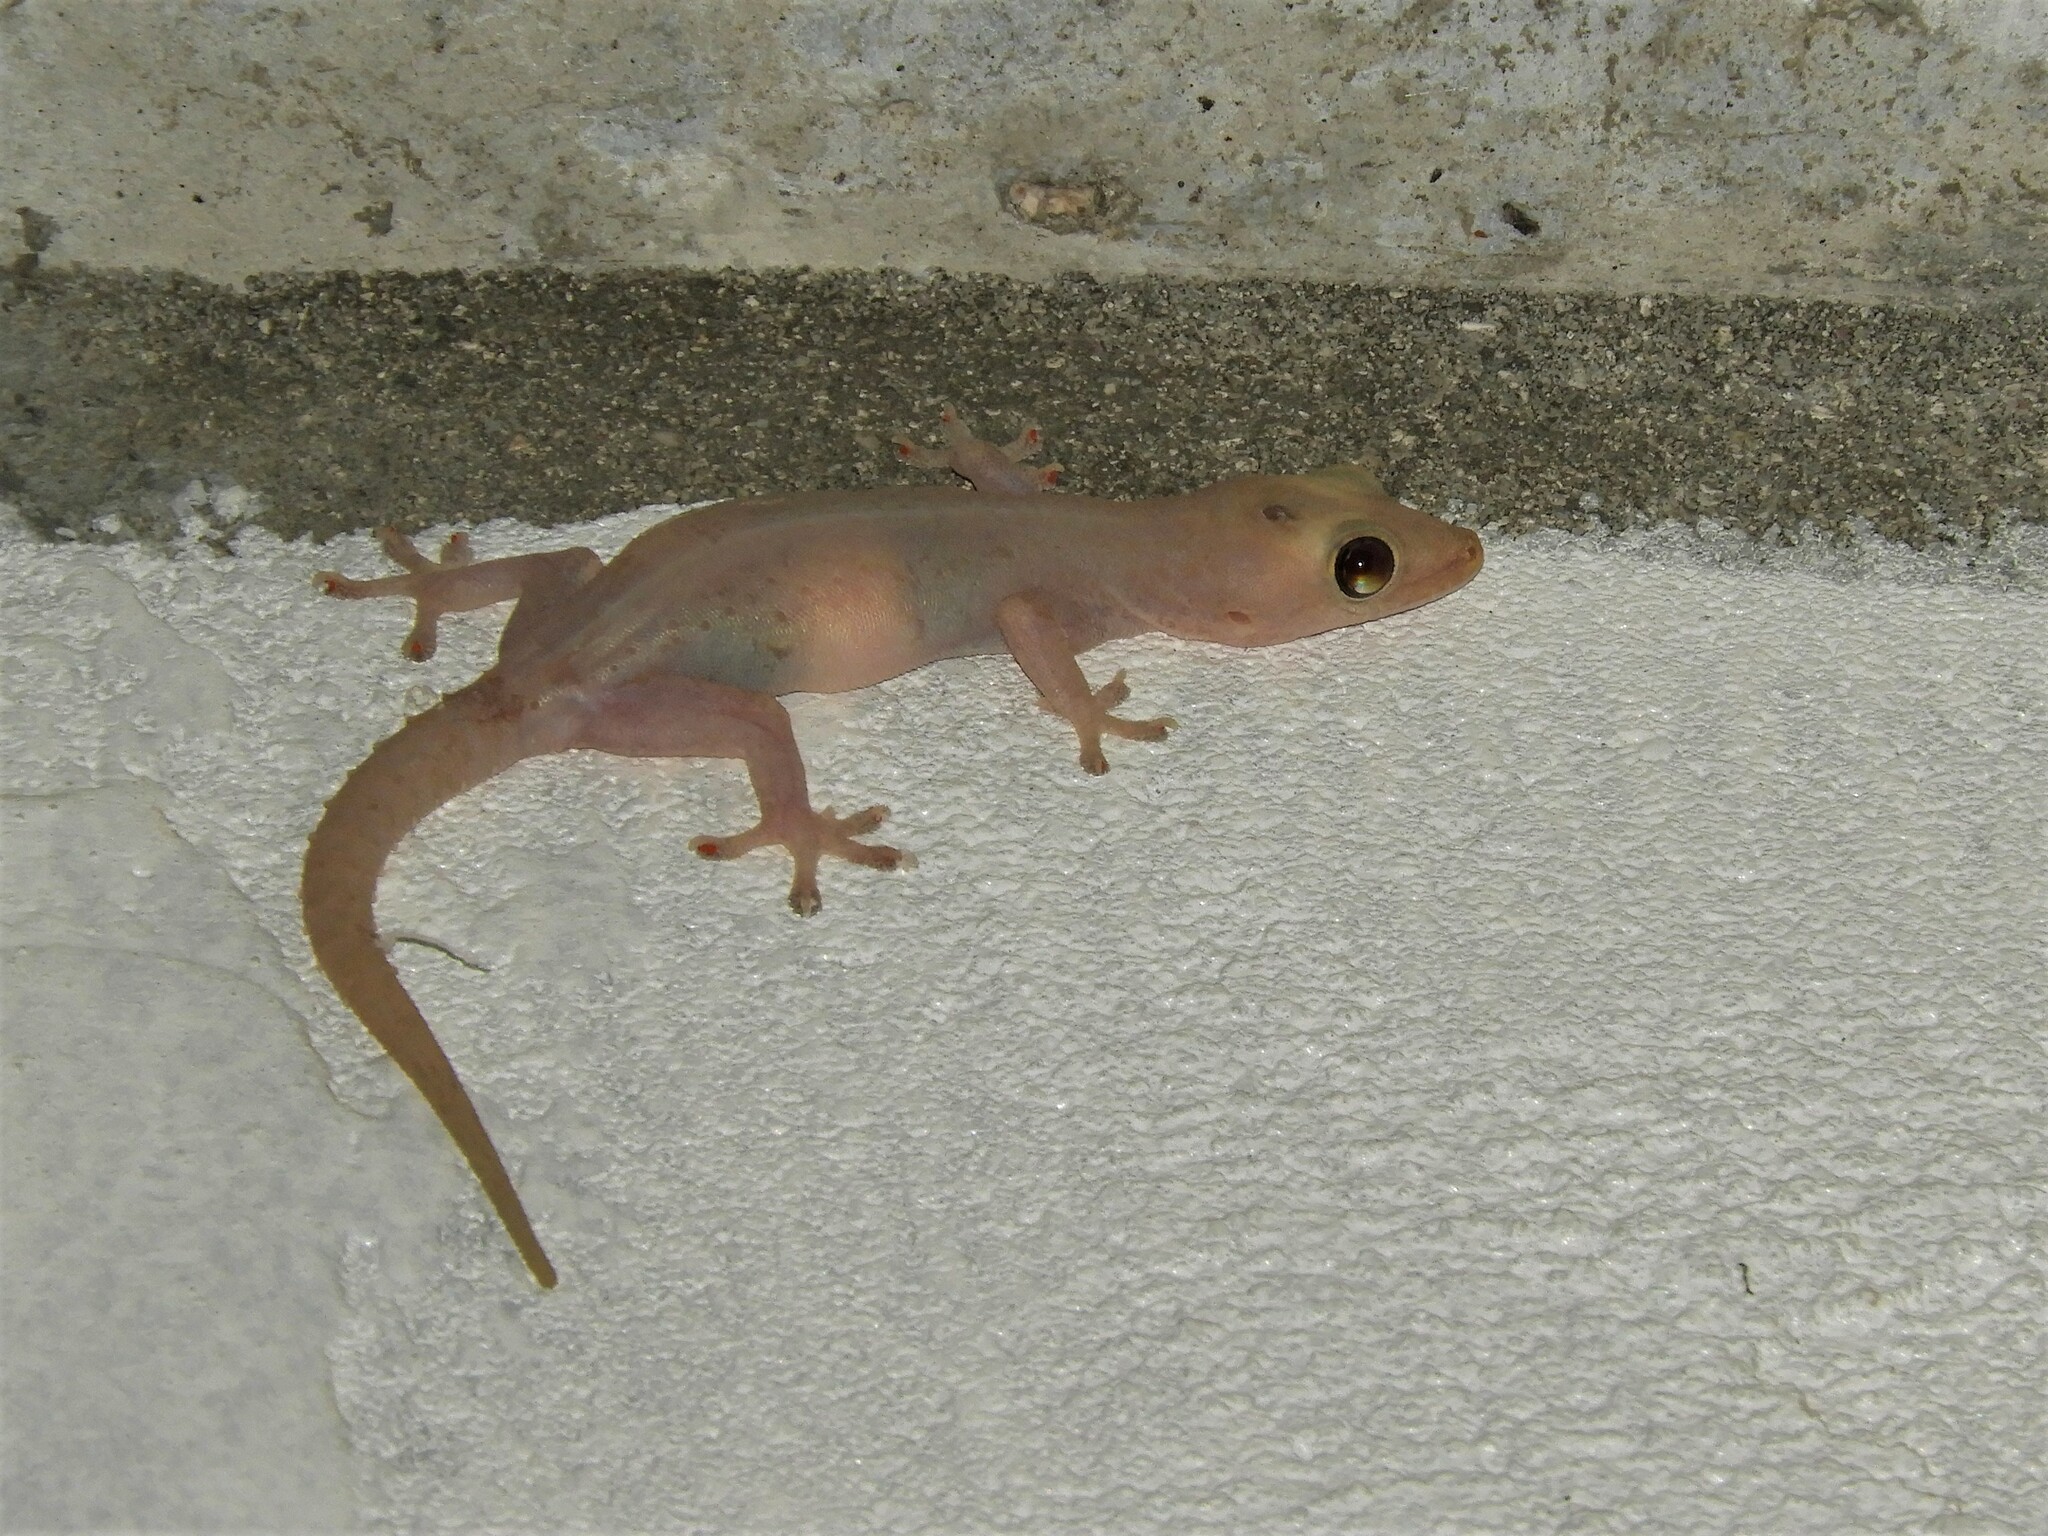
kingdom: Animalia
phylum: Chordata
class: Squamata
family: Gekkonidae
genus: Hemidactylus
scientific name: Hemidactylus frenatus
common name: Common house gecko
